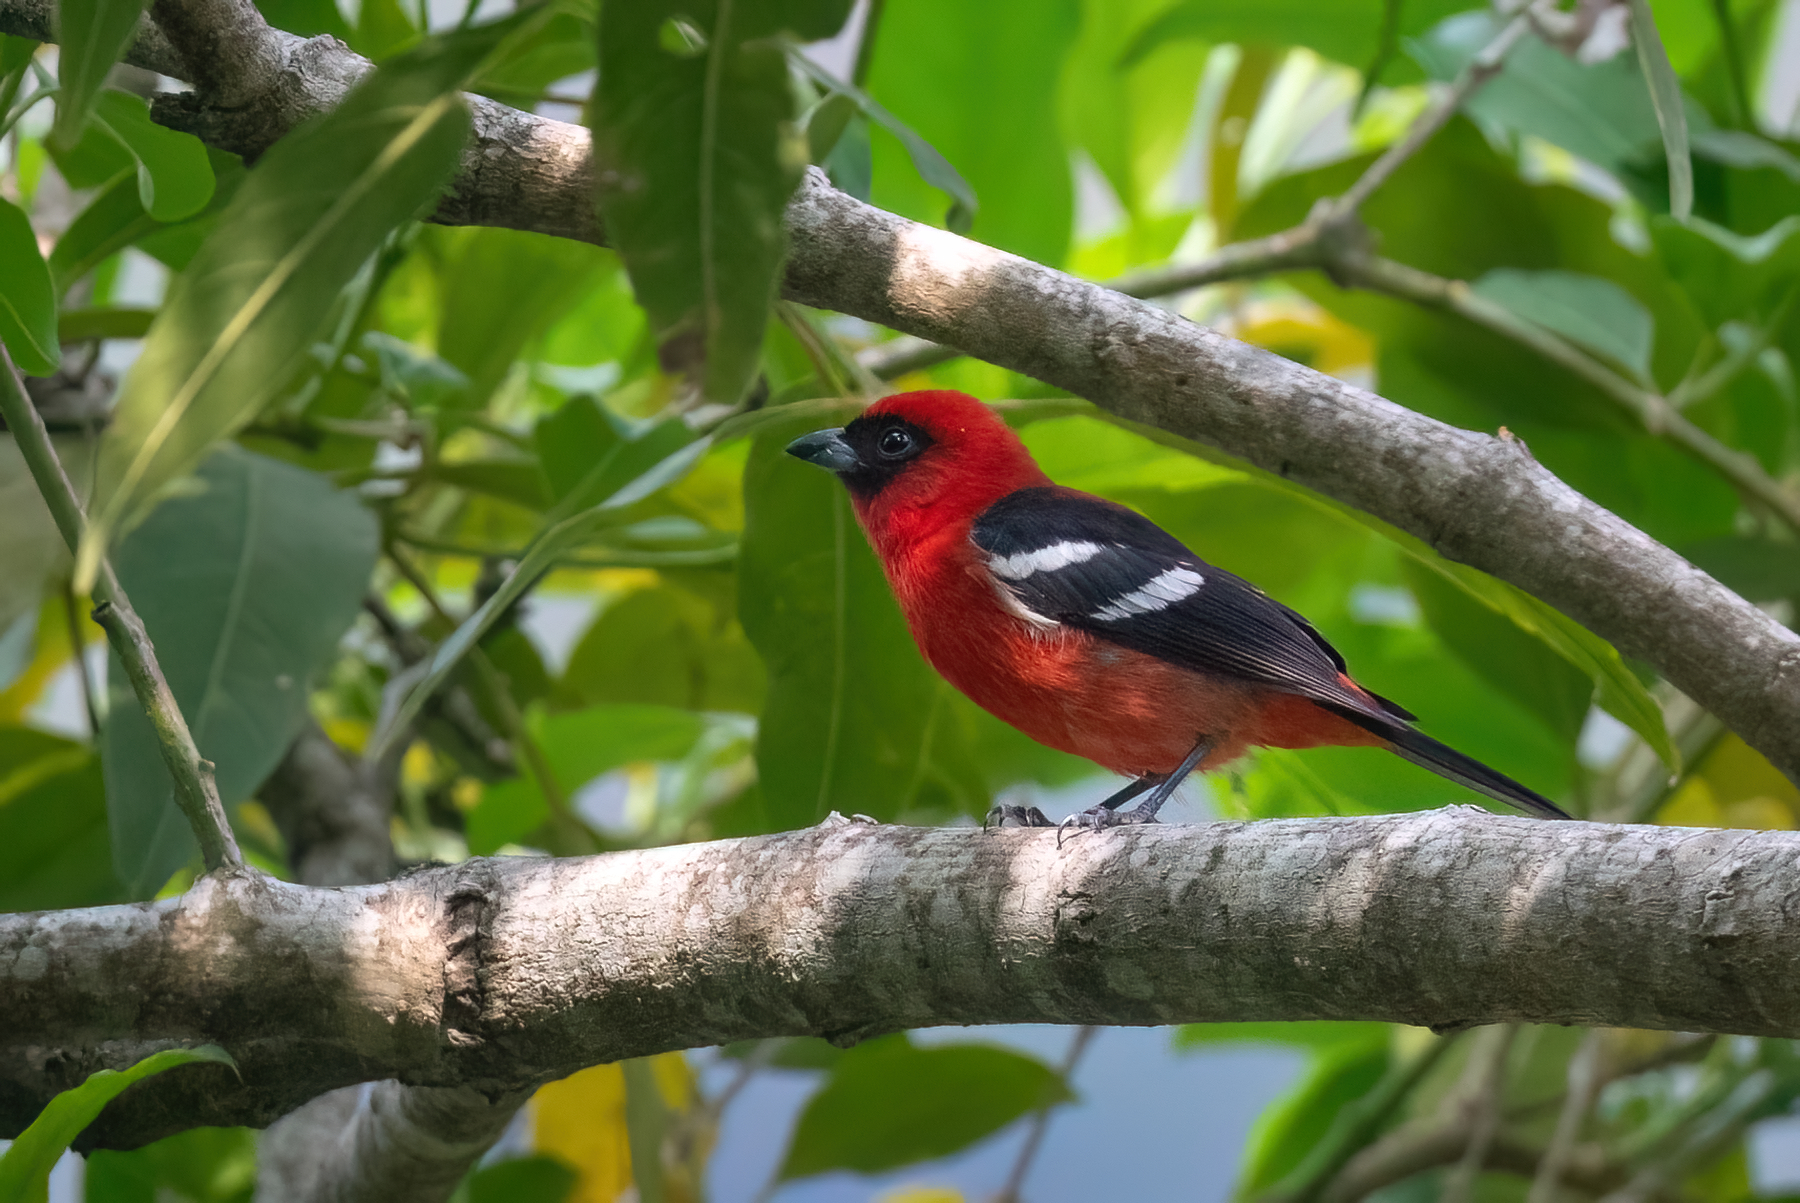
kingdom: Animalia
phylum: Chordata
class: Aves
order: Passeriformes
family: Cardinalidae
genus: Piranga
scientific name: Piranga leucoptera
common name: White-winged tanager
